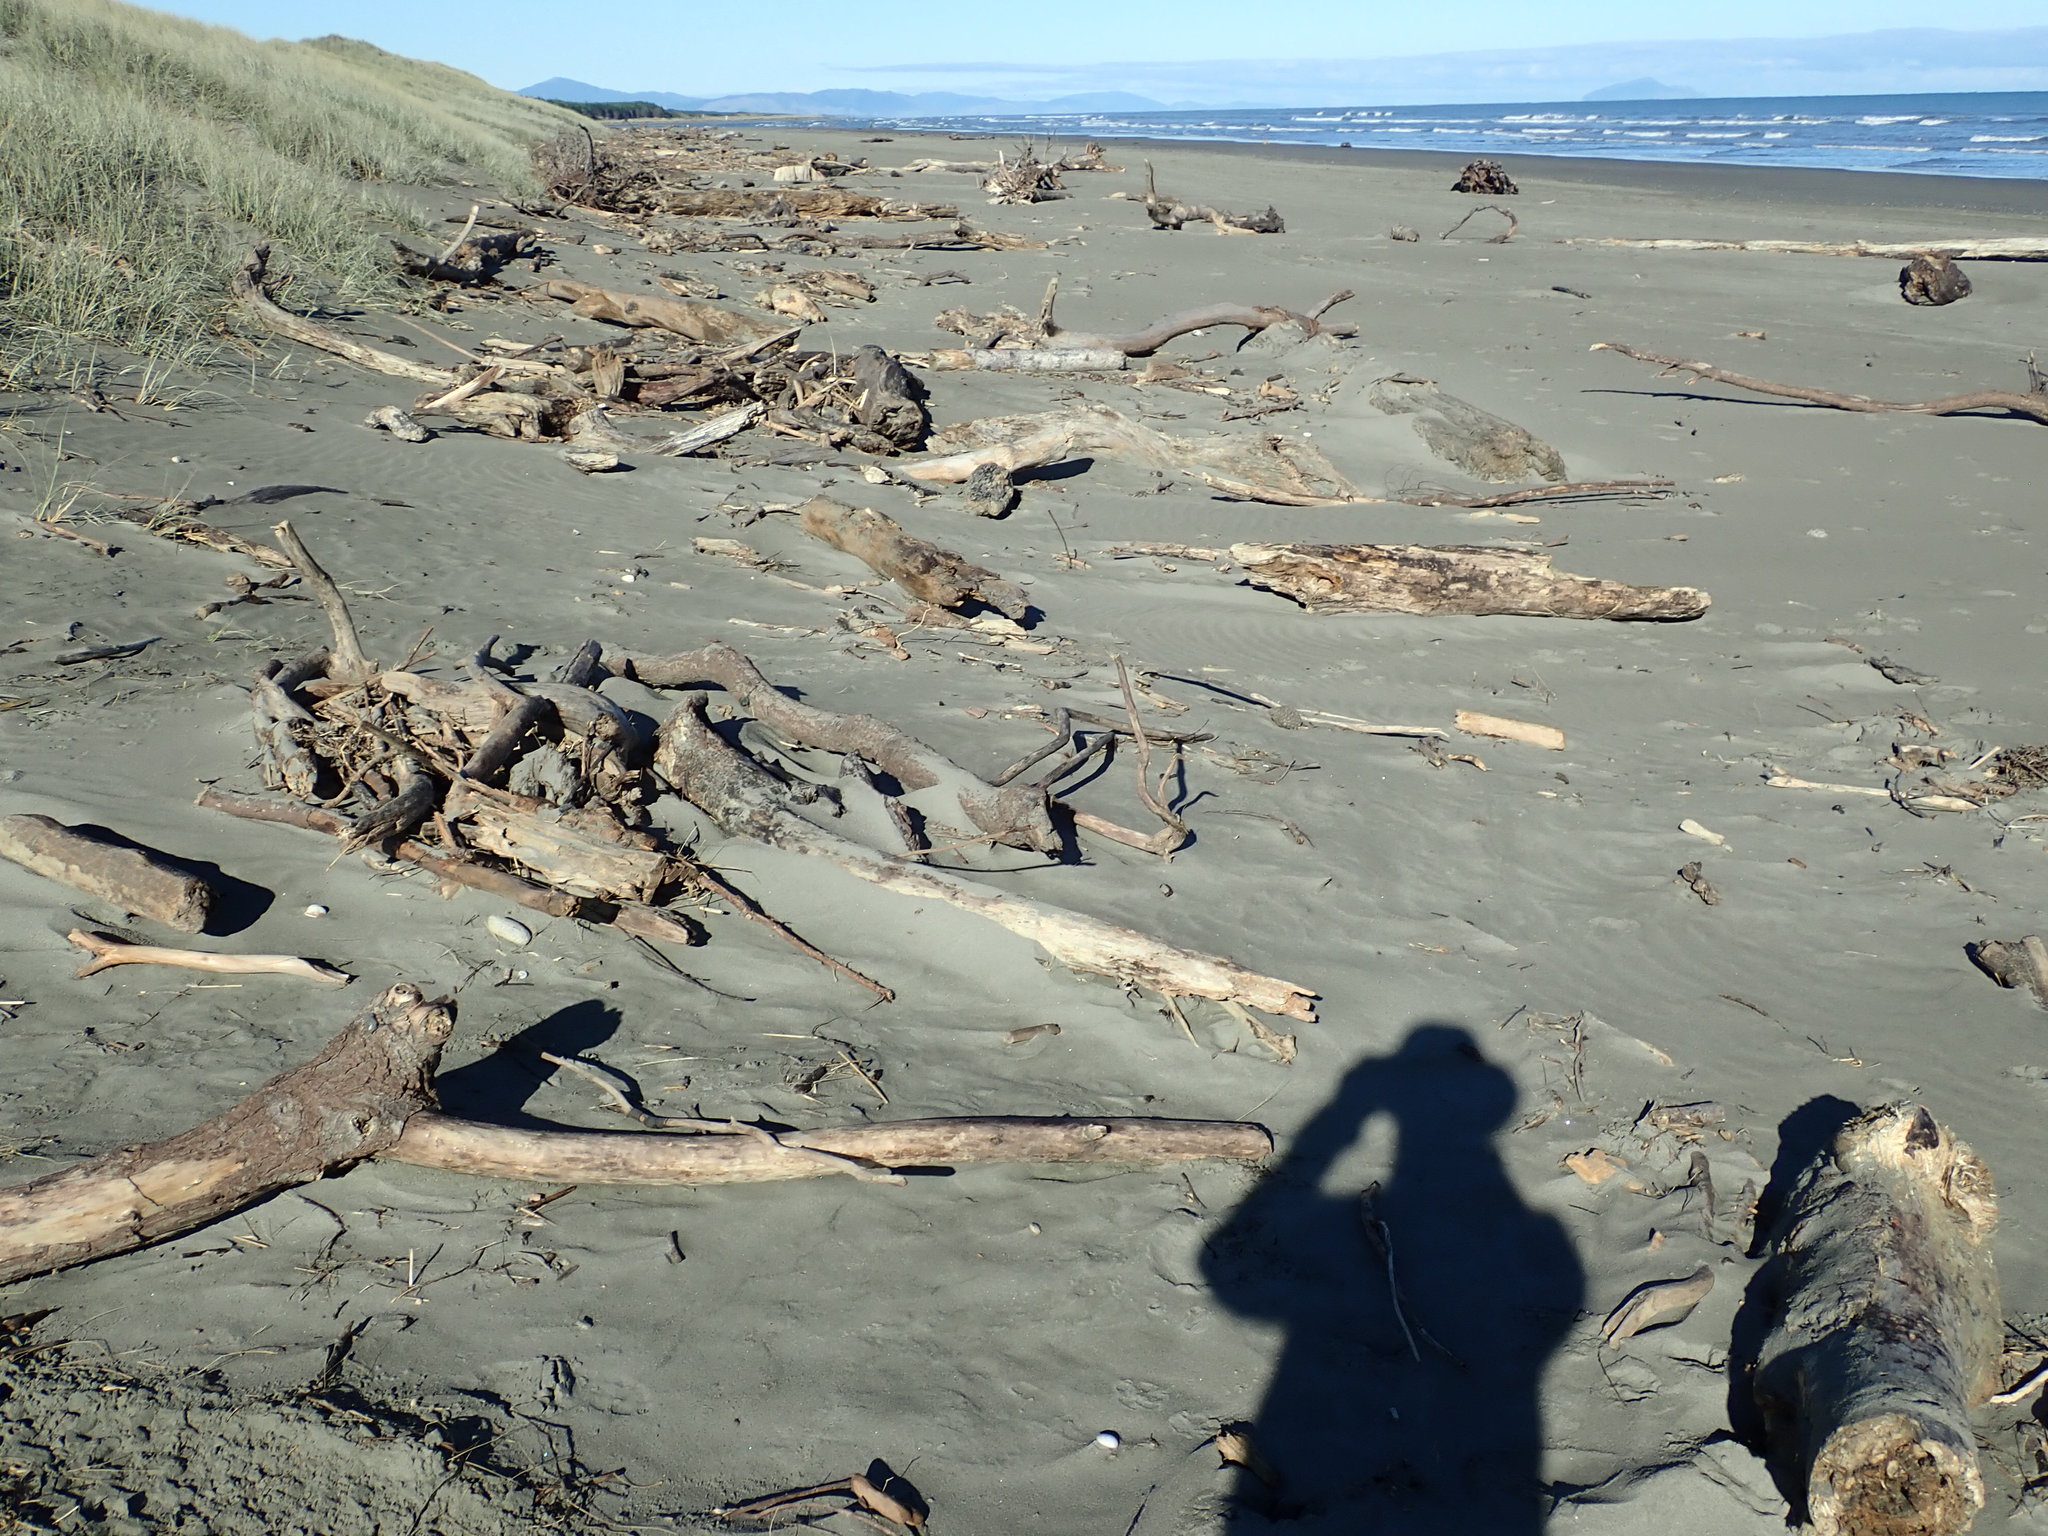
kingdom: Plantae
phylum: Tracheophyta
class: Liliopsida
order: Poales
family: Poaceae
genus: Phragmites
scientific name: Phragmites karka
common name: Tropical reed
